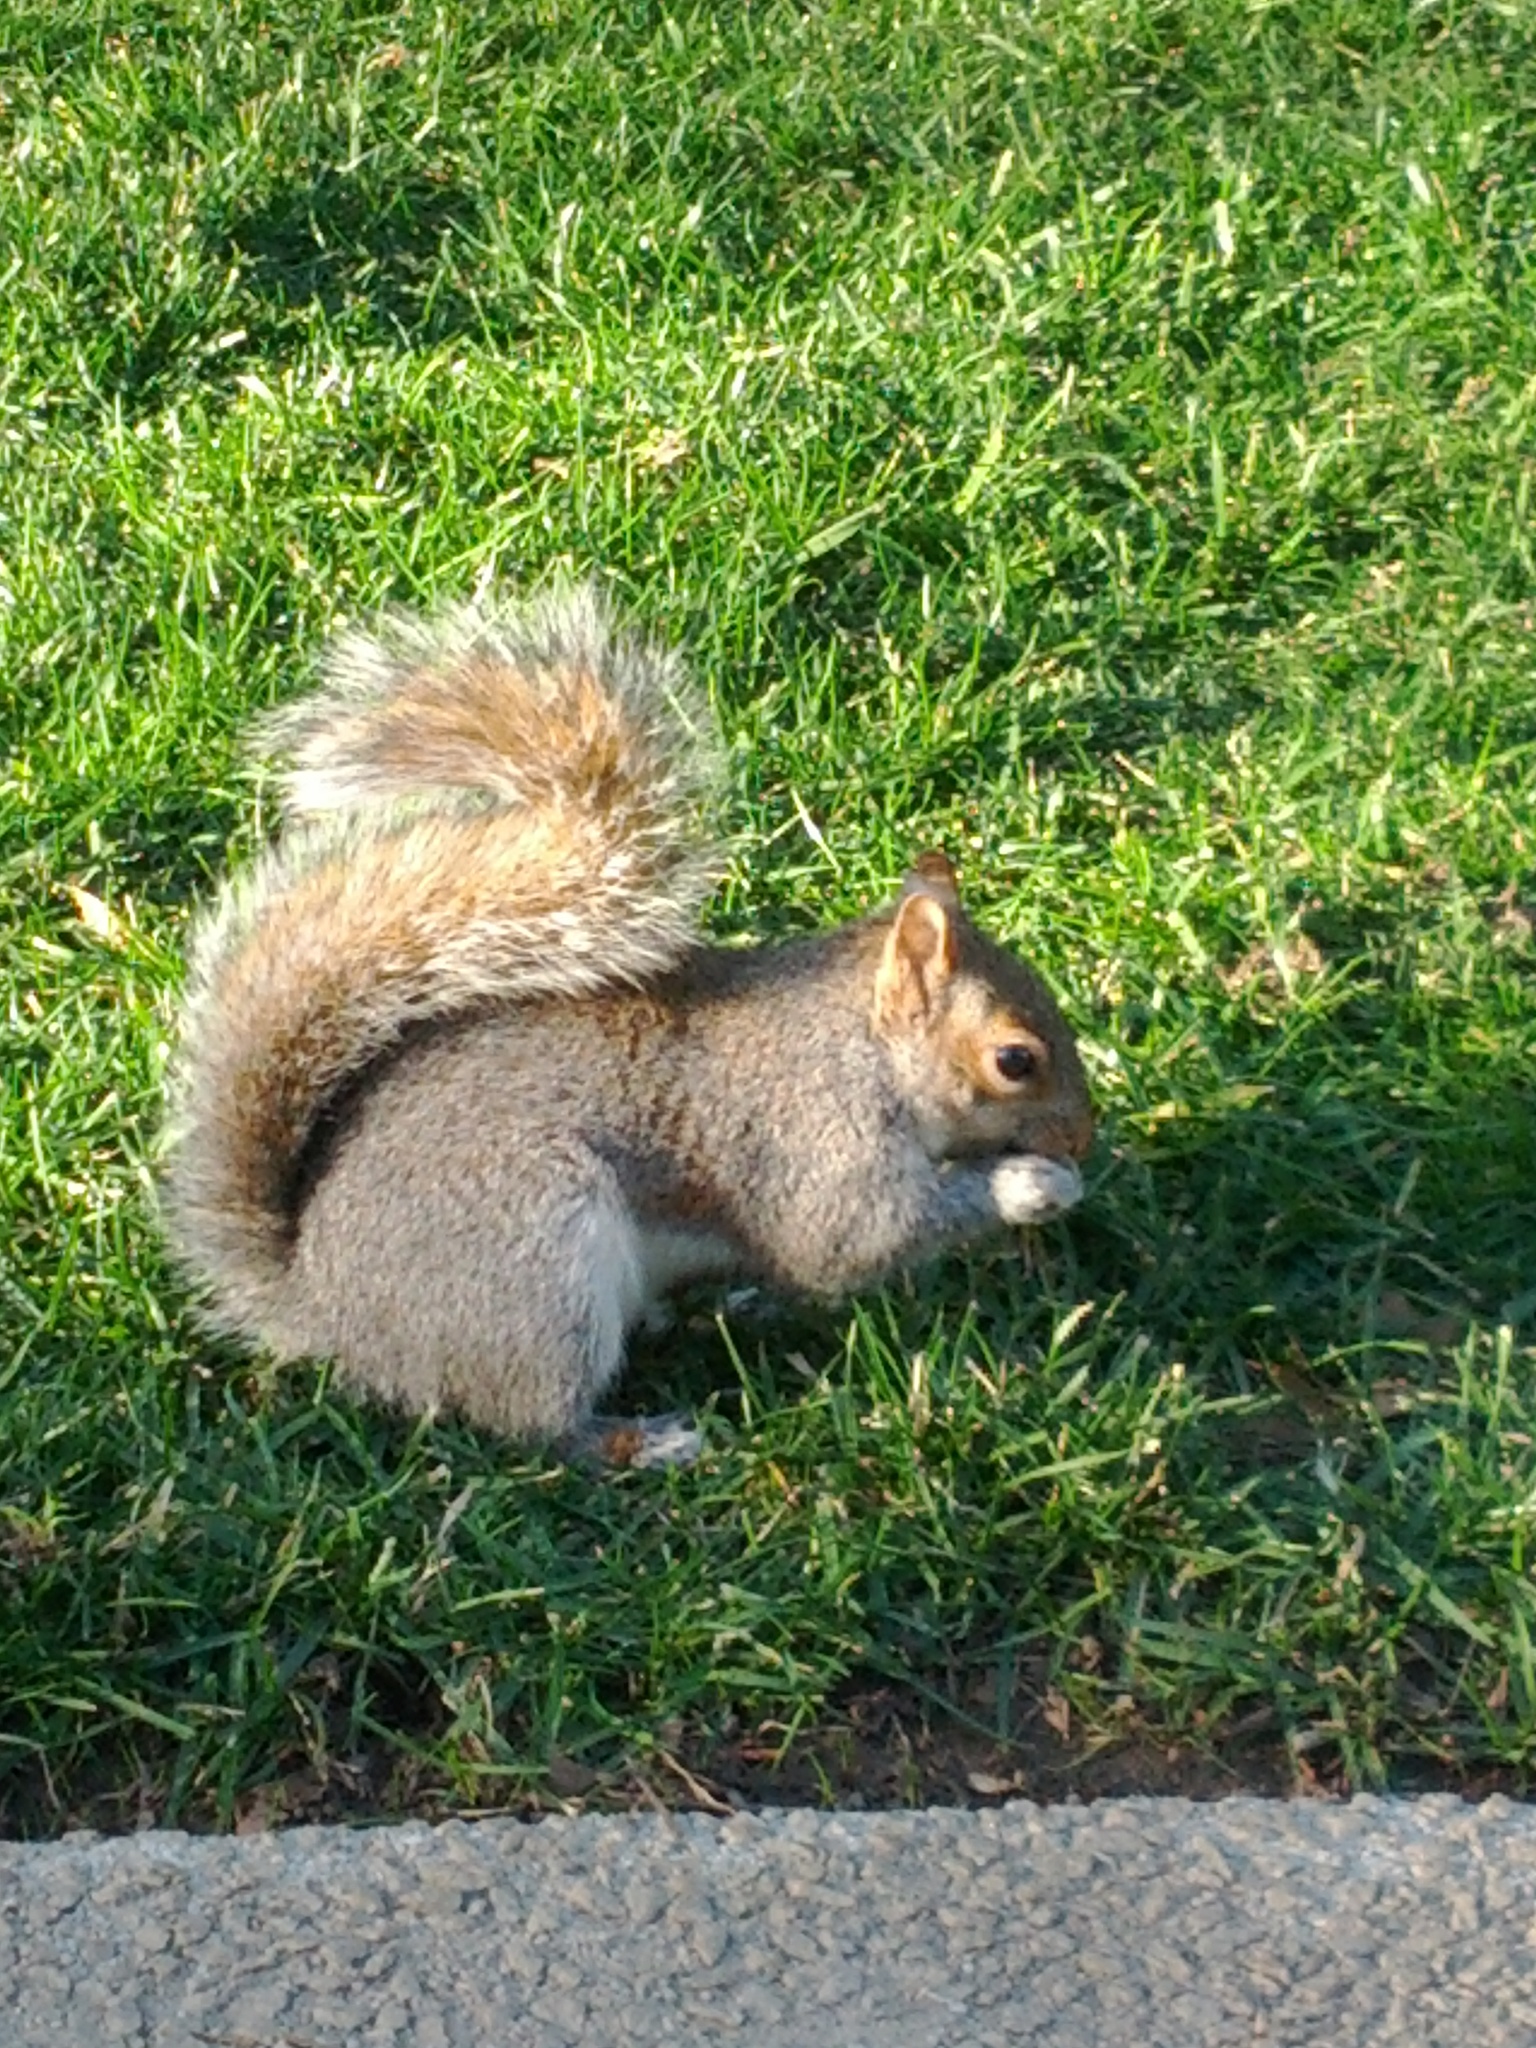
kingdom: Animalia
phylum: Chordata
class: Mammalia
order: Rodentia
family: Sciuridae
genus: Sciurus
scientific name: Sciurus carolinensis
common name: Eastern gray squirrel
